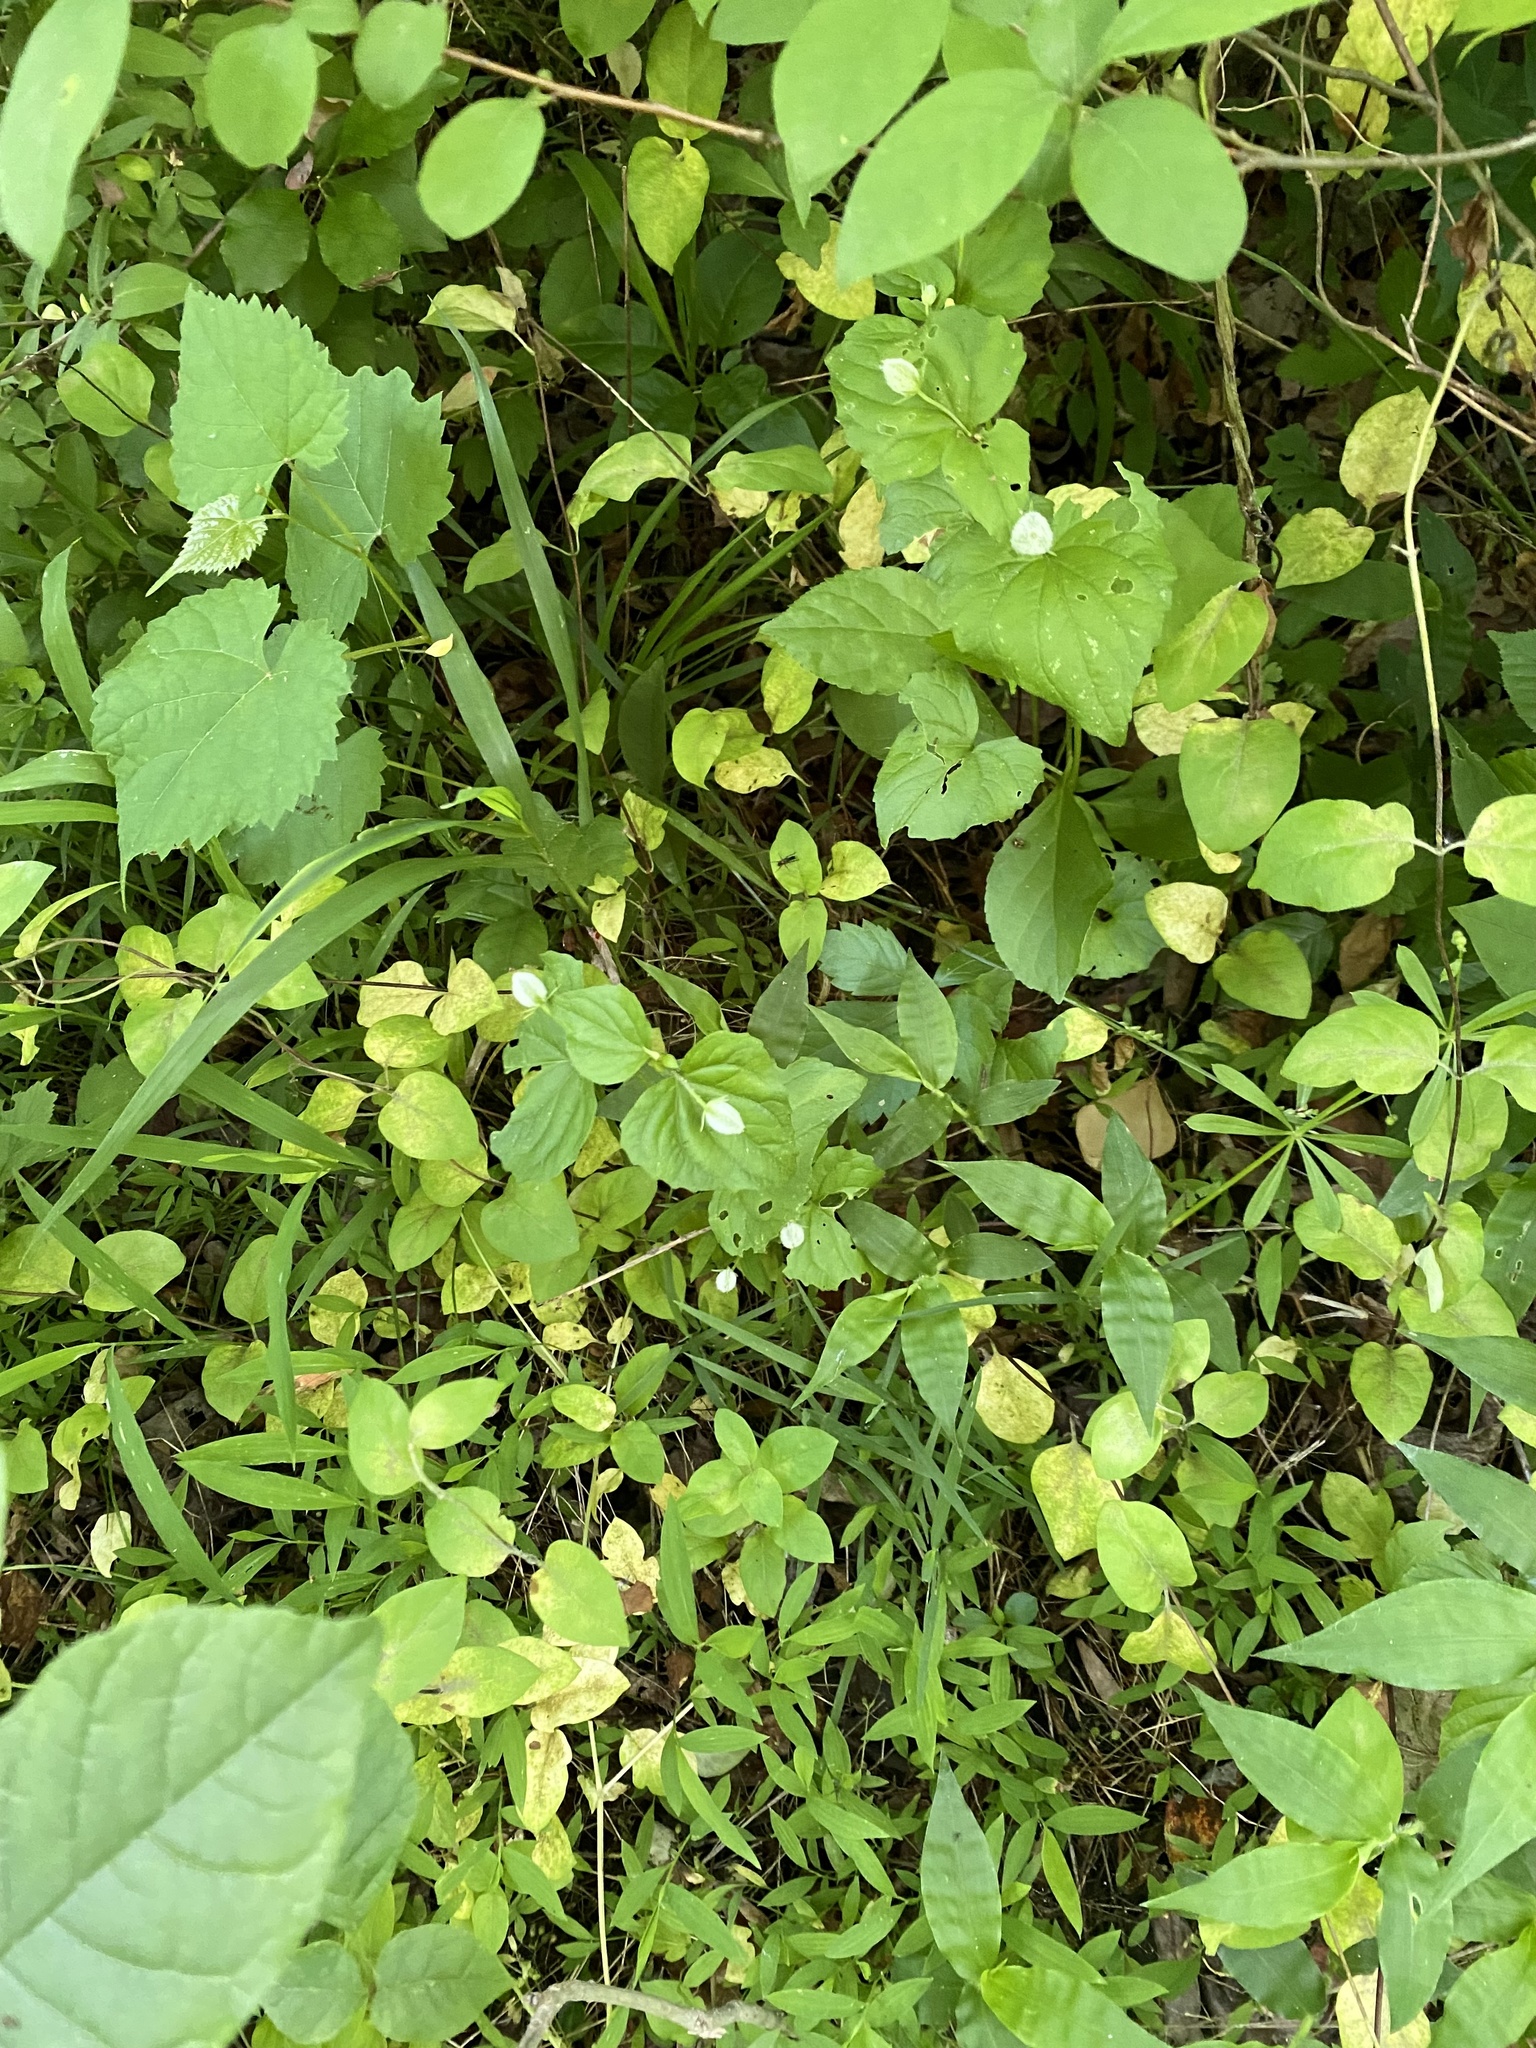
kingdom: Plantae
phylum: Tracheophyta
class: Magnoliopsida
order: Malpighiales
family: Violaceae
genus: Viola
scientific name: Viola eriocarpa
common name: Smooth yellow violet
